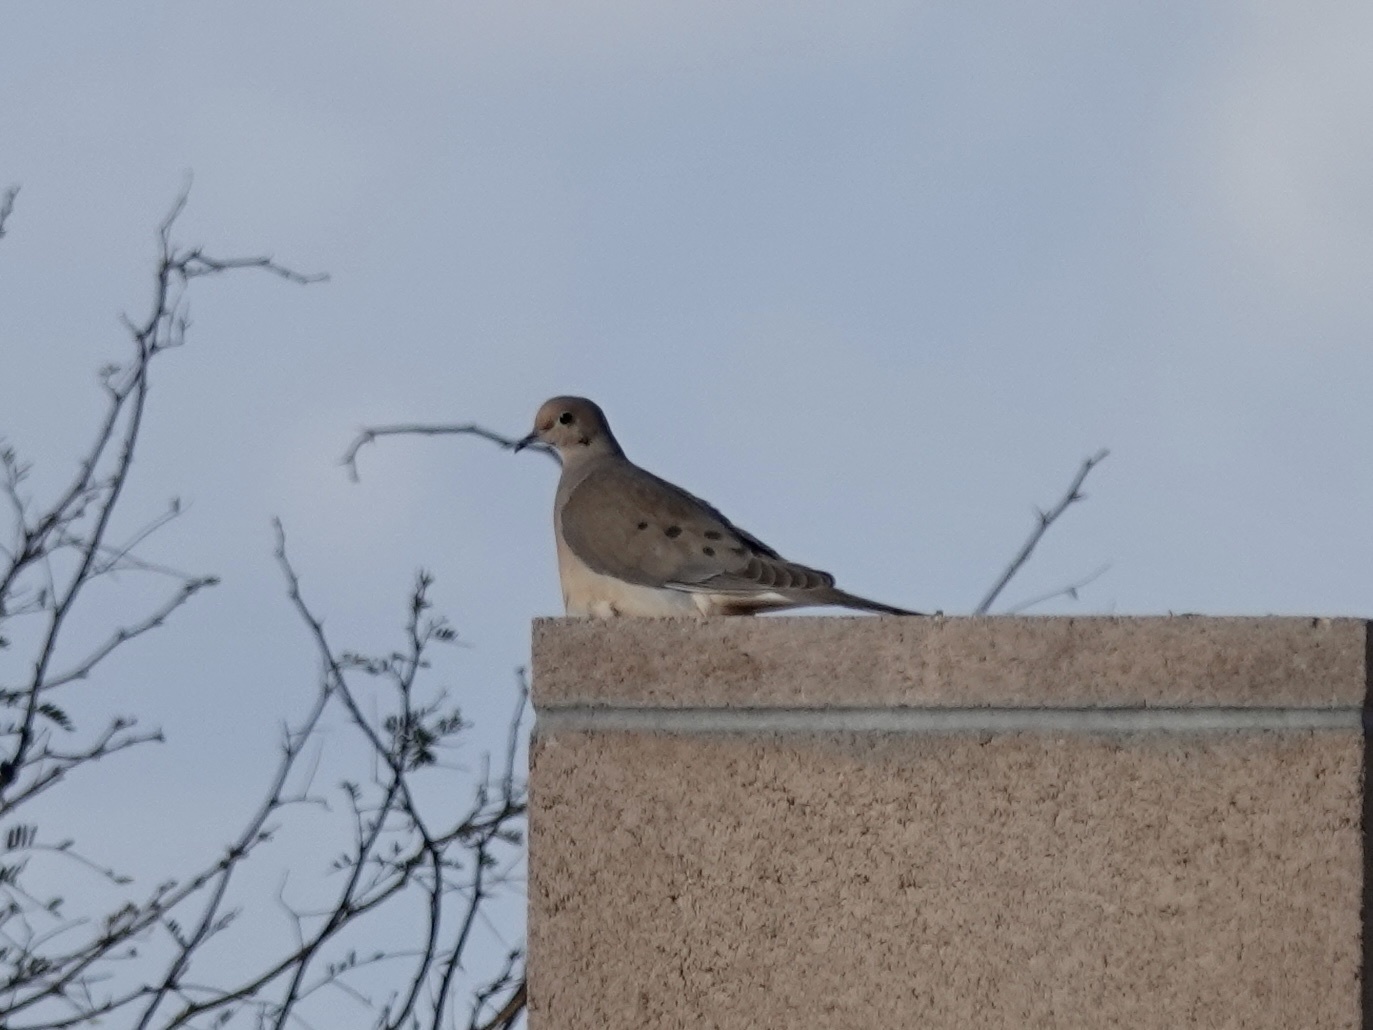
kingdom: Animalia
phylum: Chordata
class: Aves
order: Columbiformes
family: Columbidae
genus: Zenaida
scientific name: Zenaida macroura
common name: Mourning dove
